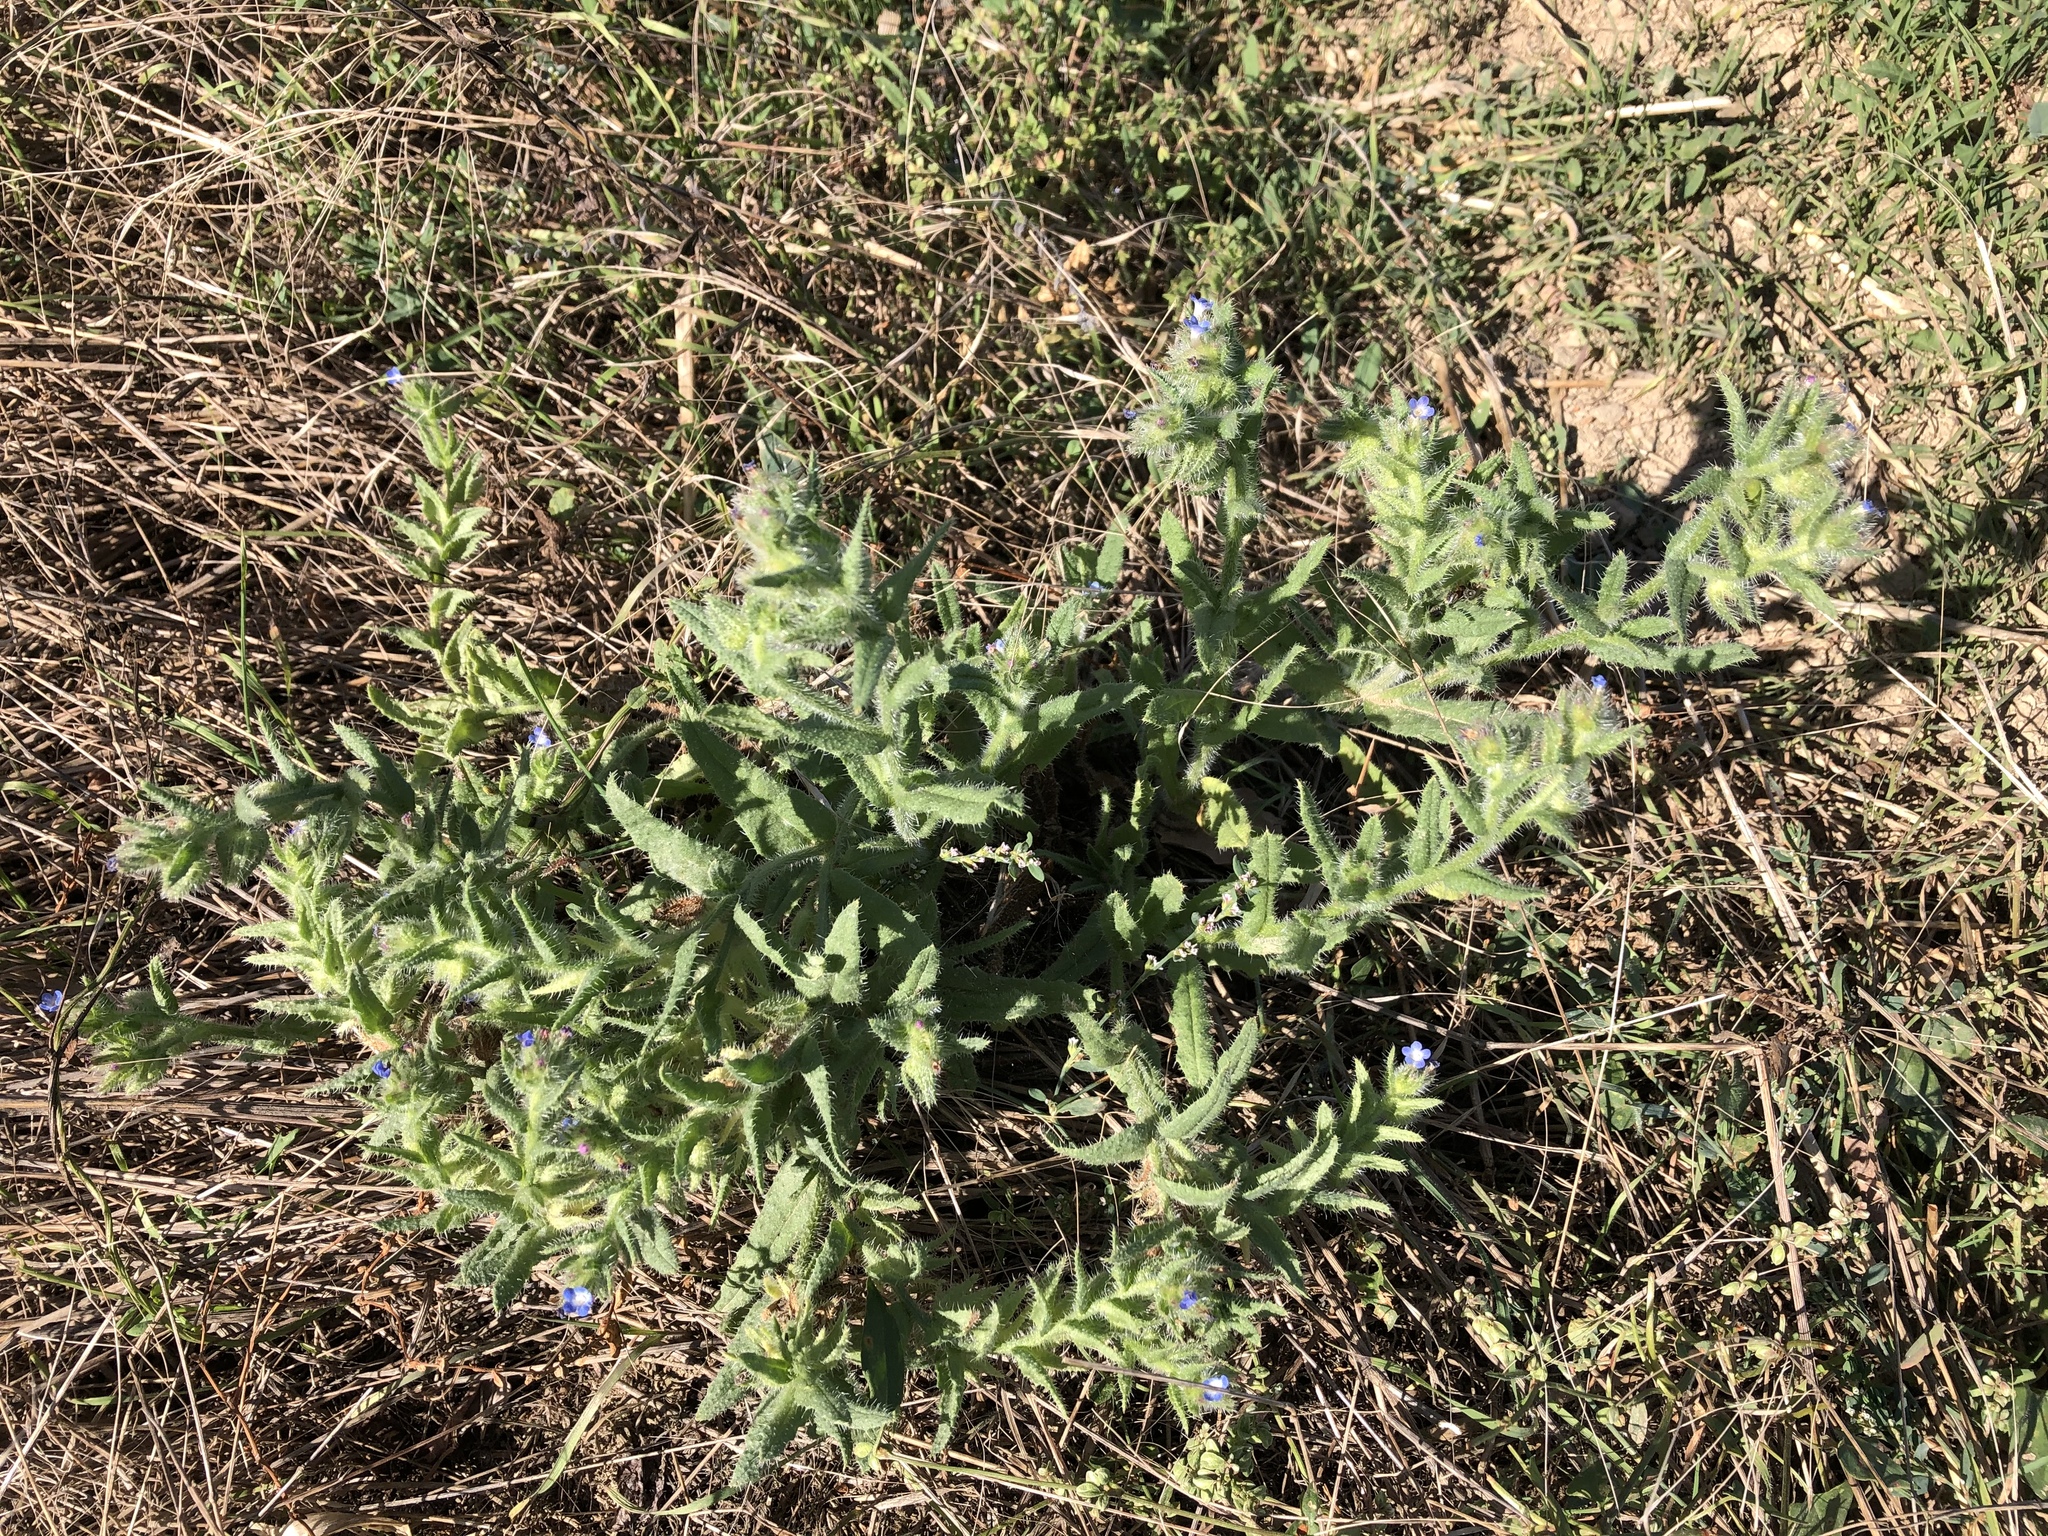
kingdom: Plantae
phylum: Tracheophyta
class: Magnoliopsida
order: Boraginales
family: Boraginaceae
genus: Lycopsis
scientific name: Lycopsis arvensis
